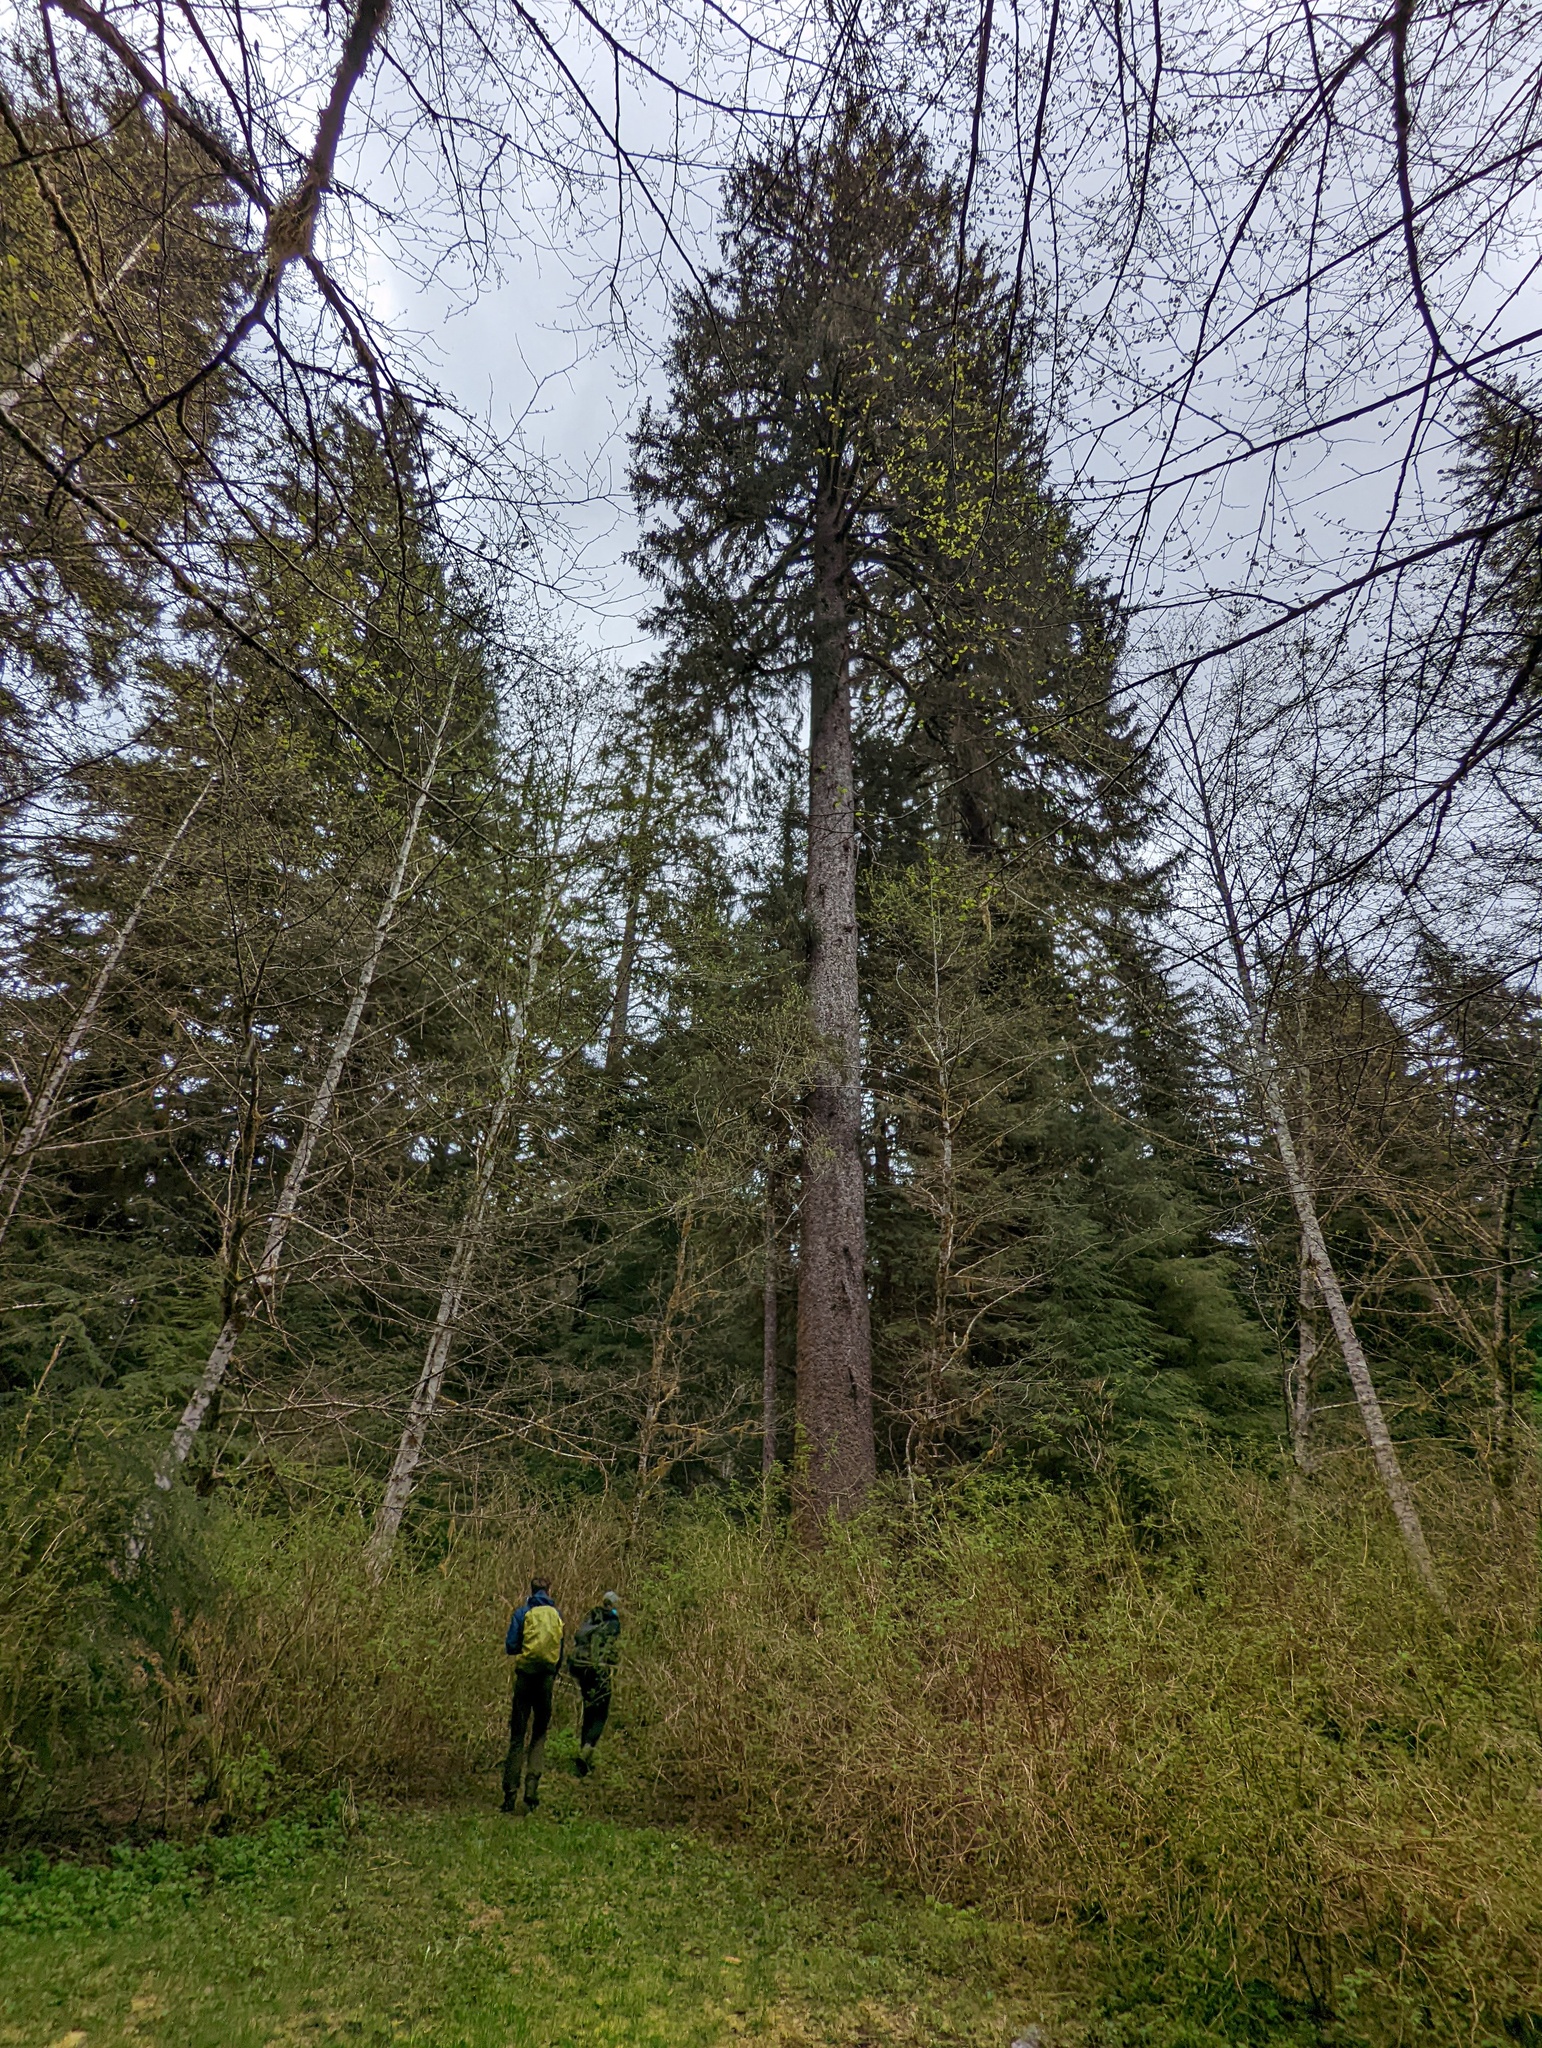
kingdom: Plantae
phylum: Tracheophyta
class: Pinopsida
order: Pinales
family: Pinaceae
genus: Picea
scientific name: Picea sitchensis
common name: Sitka spruce
